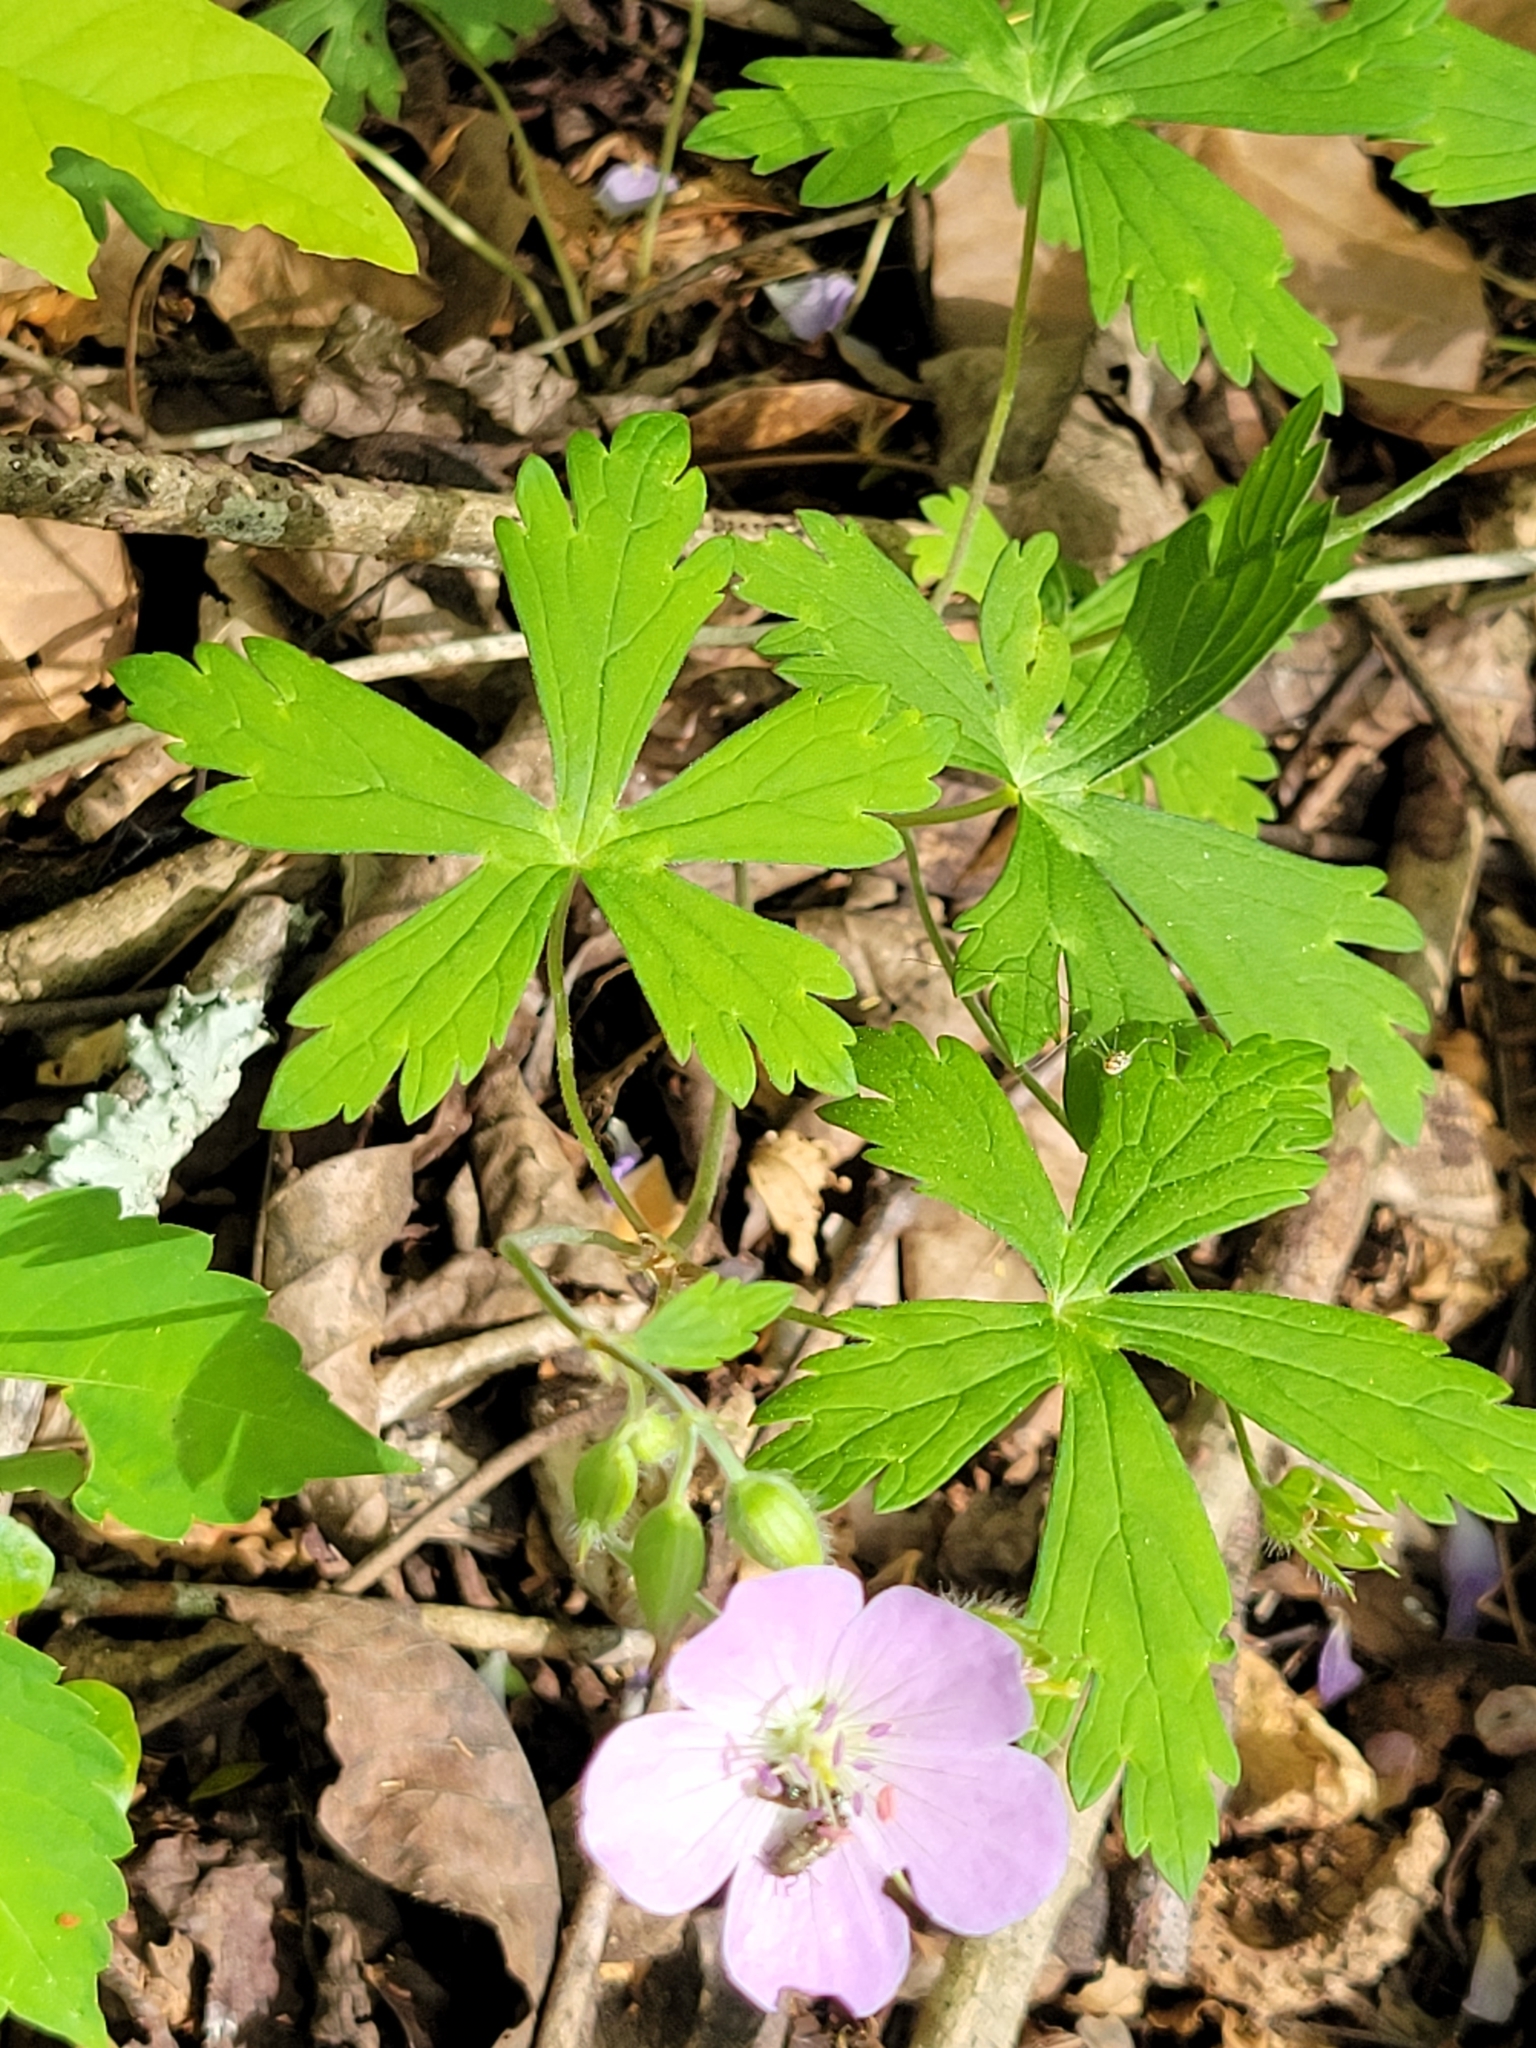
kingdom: Plantae
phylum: Tracheophyta
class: Magnoliopsida
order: Geraniales
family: Geraniaceae
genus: Geranium
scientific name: Geranium maculatum
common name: Spotted geranium
